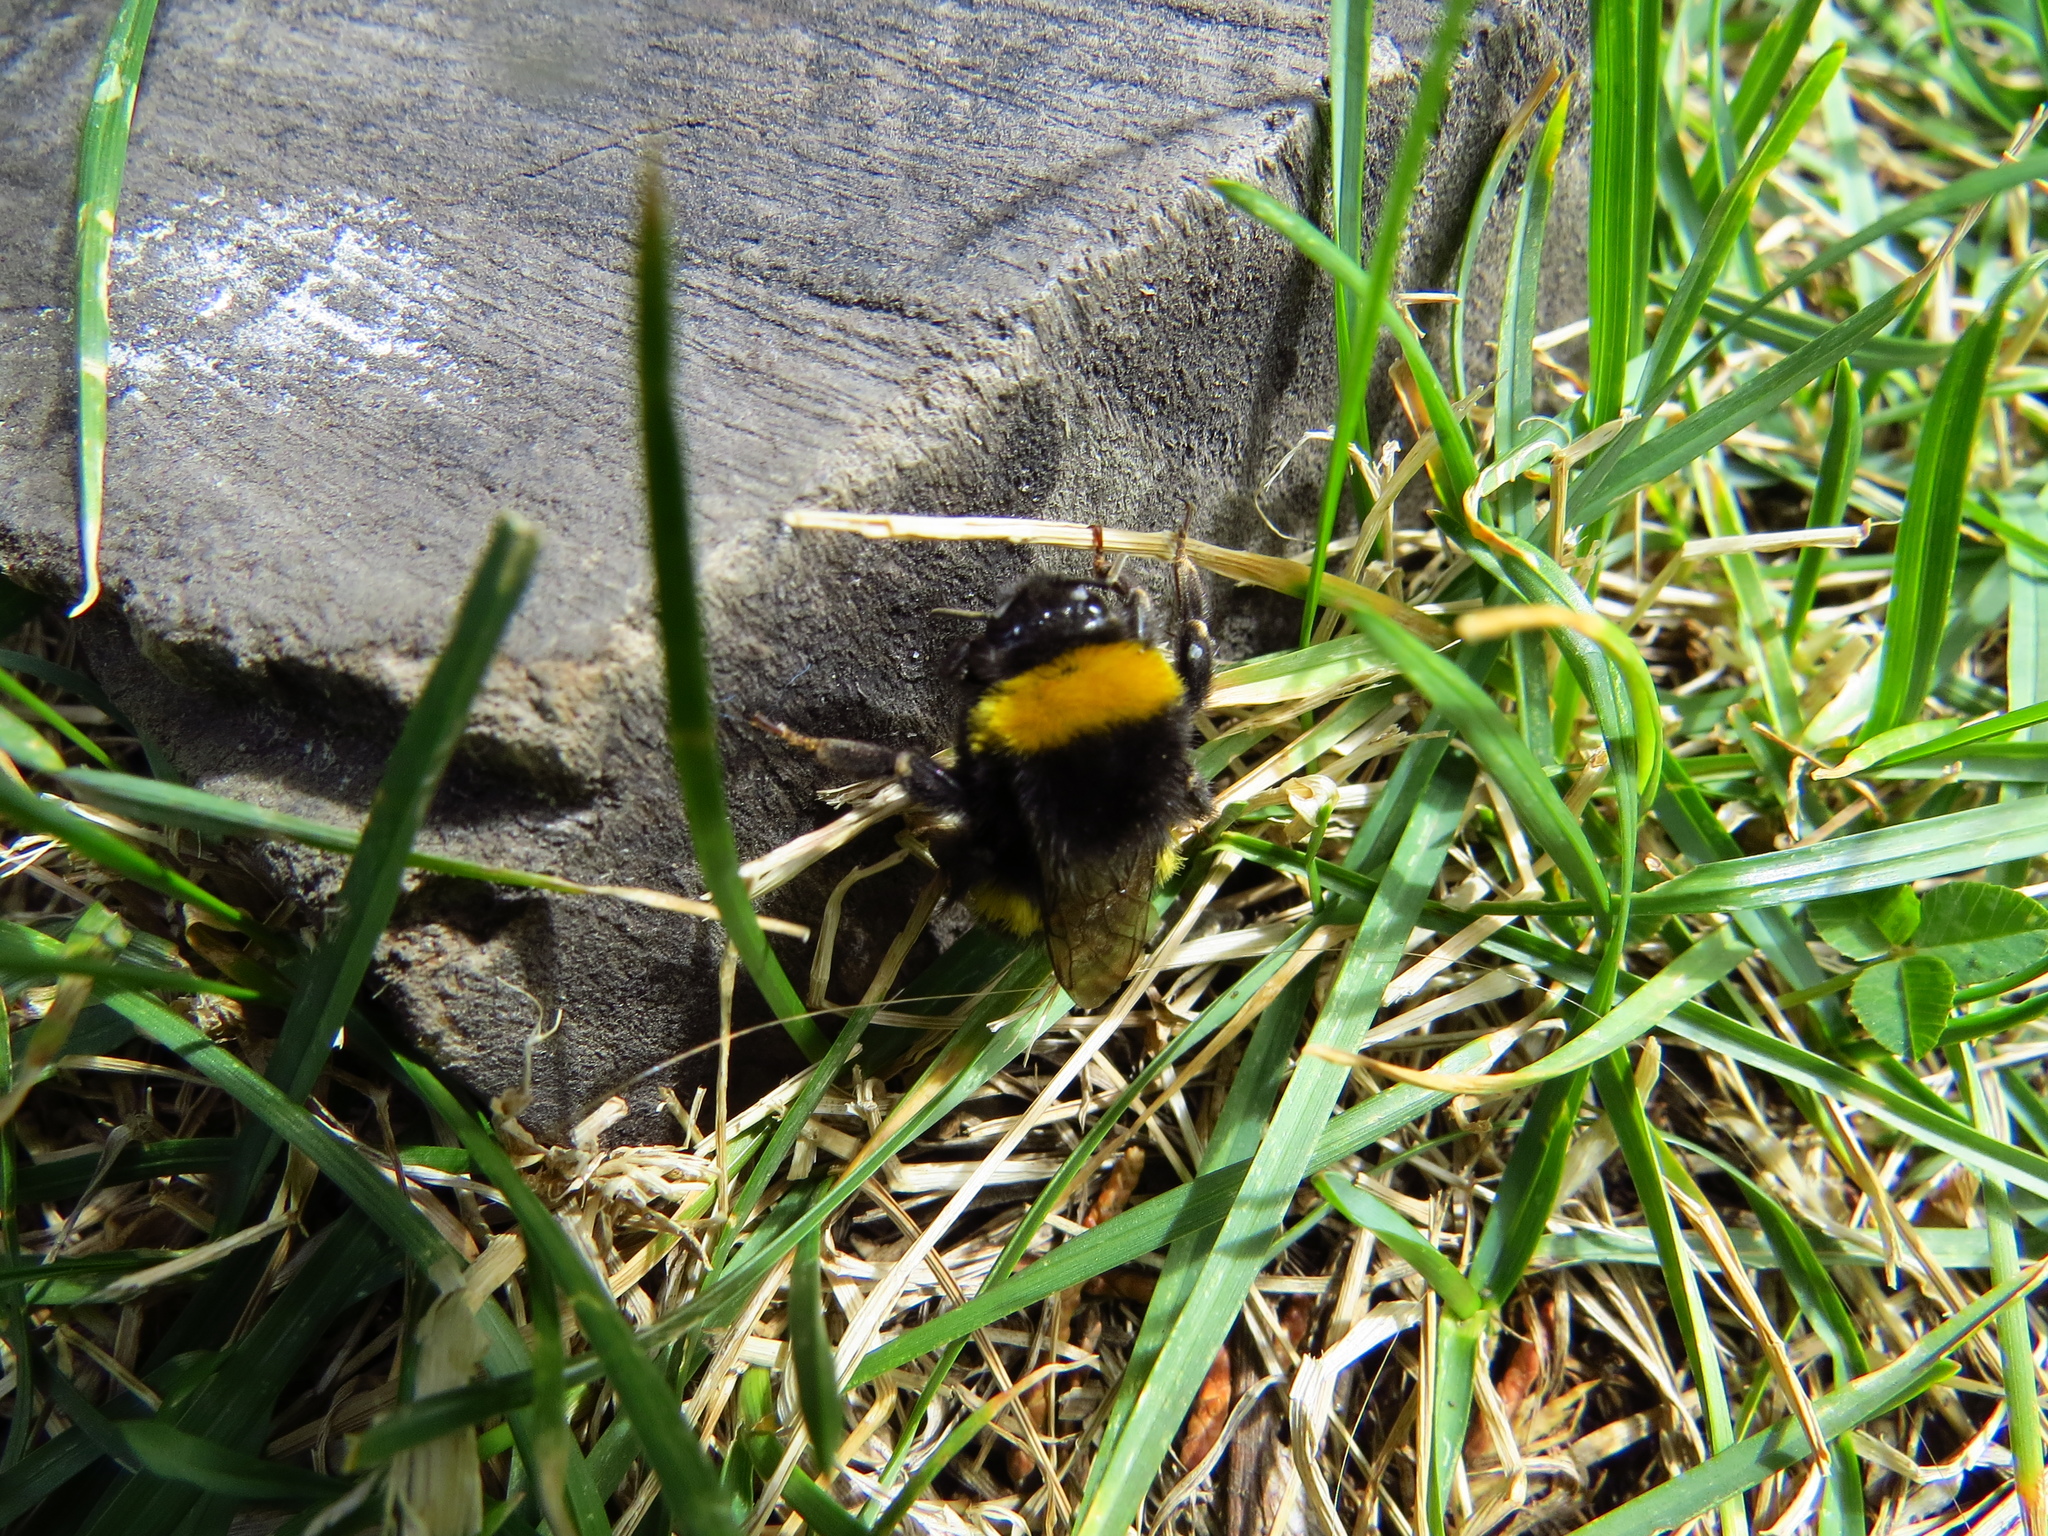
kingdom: Animalia
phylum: Arthropoda
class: Insecta
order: Hymenoptera
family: Apidae
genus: Bombus
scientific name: Bombus terrestris
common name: Buff-tailed bumblebee
